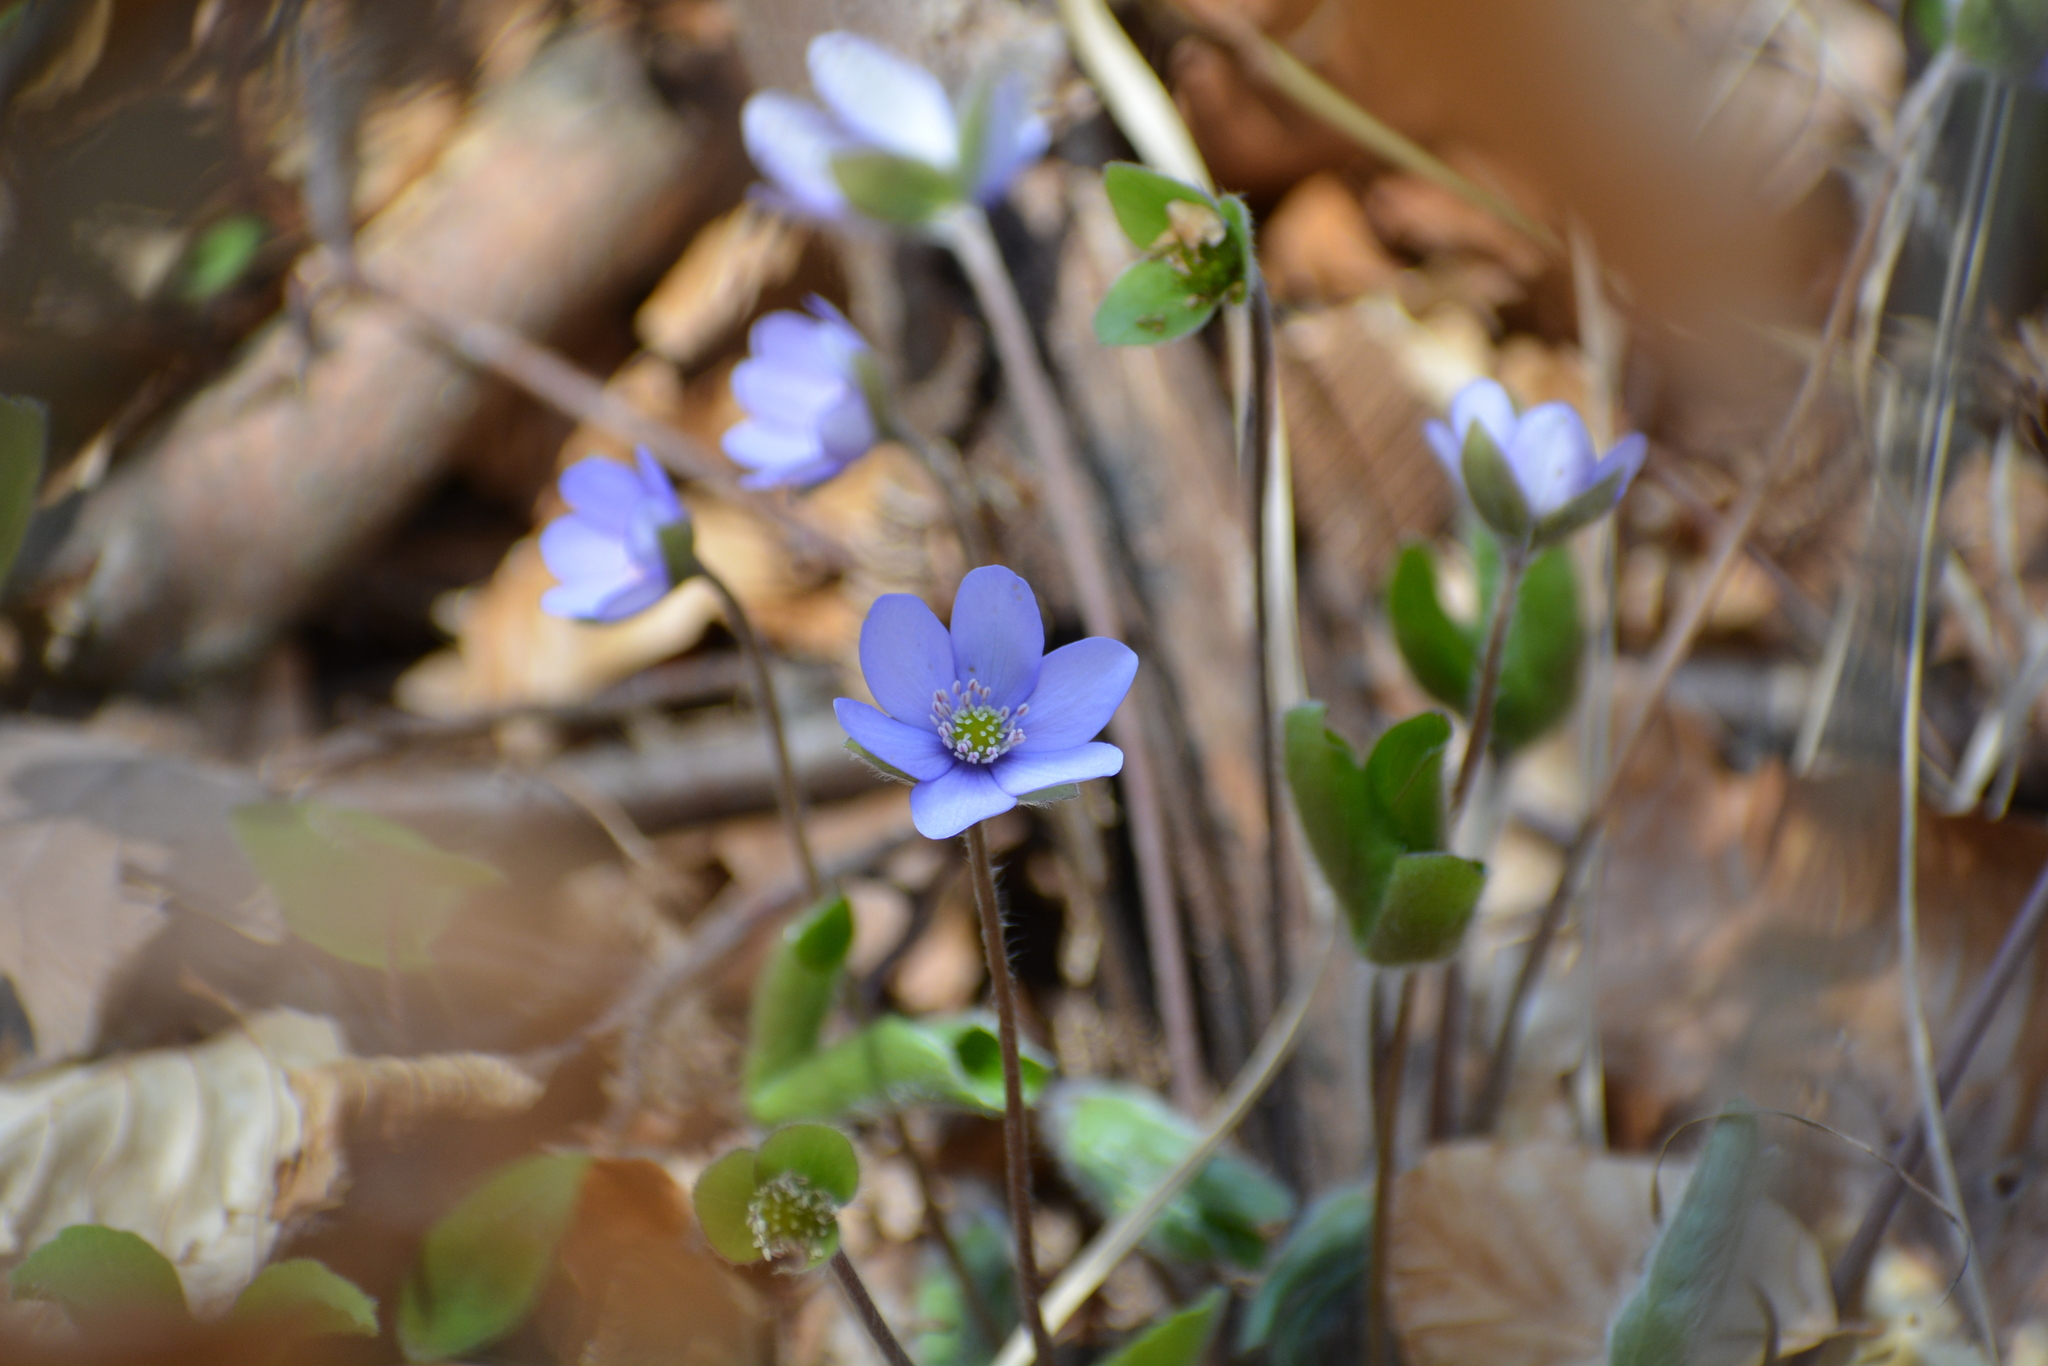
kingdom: Plantae
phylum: Tracheophyta
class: Magnoliopsida
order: Ranunculales
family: Ranunculaceae
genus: Hepatica
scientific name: Hepatica nobilis
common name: Liverleaf
